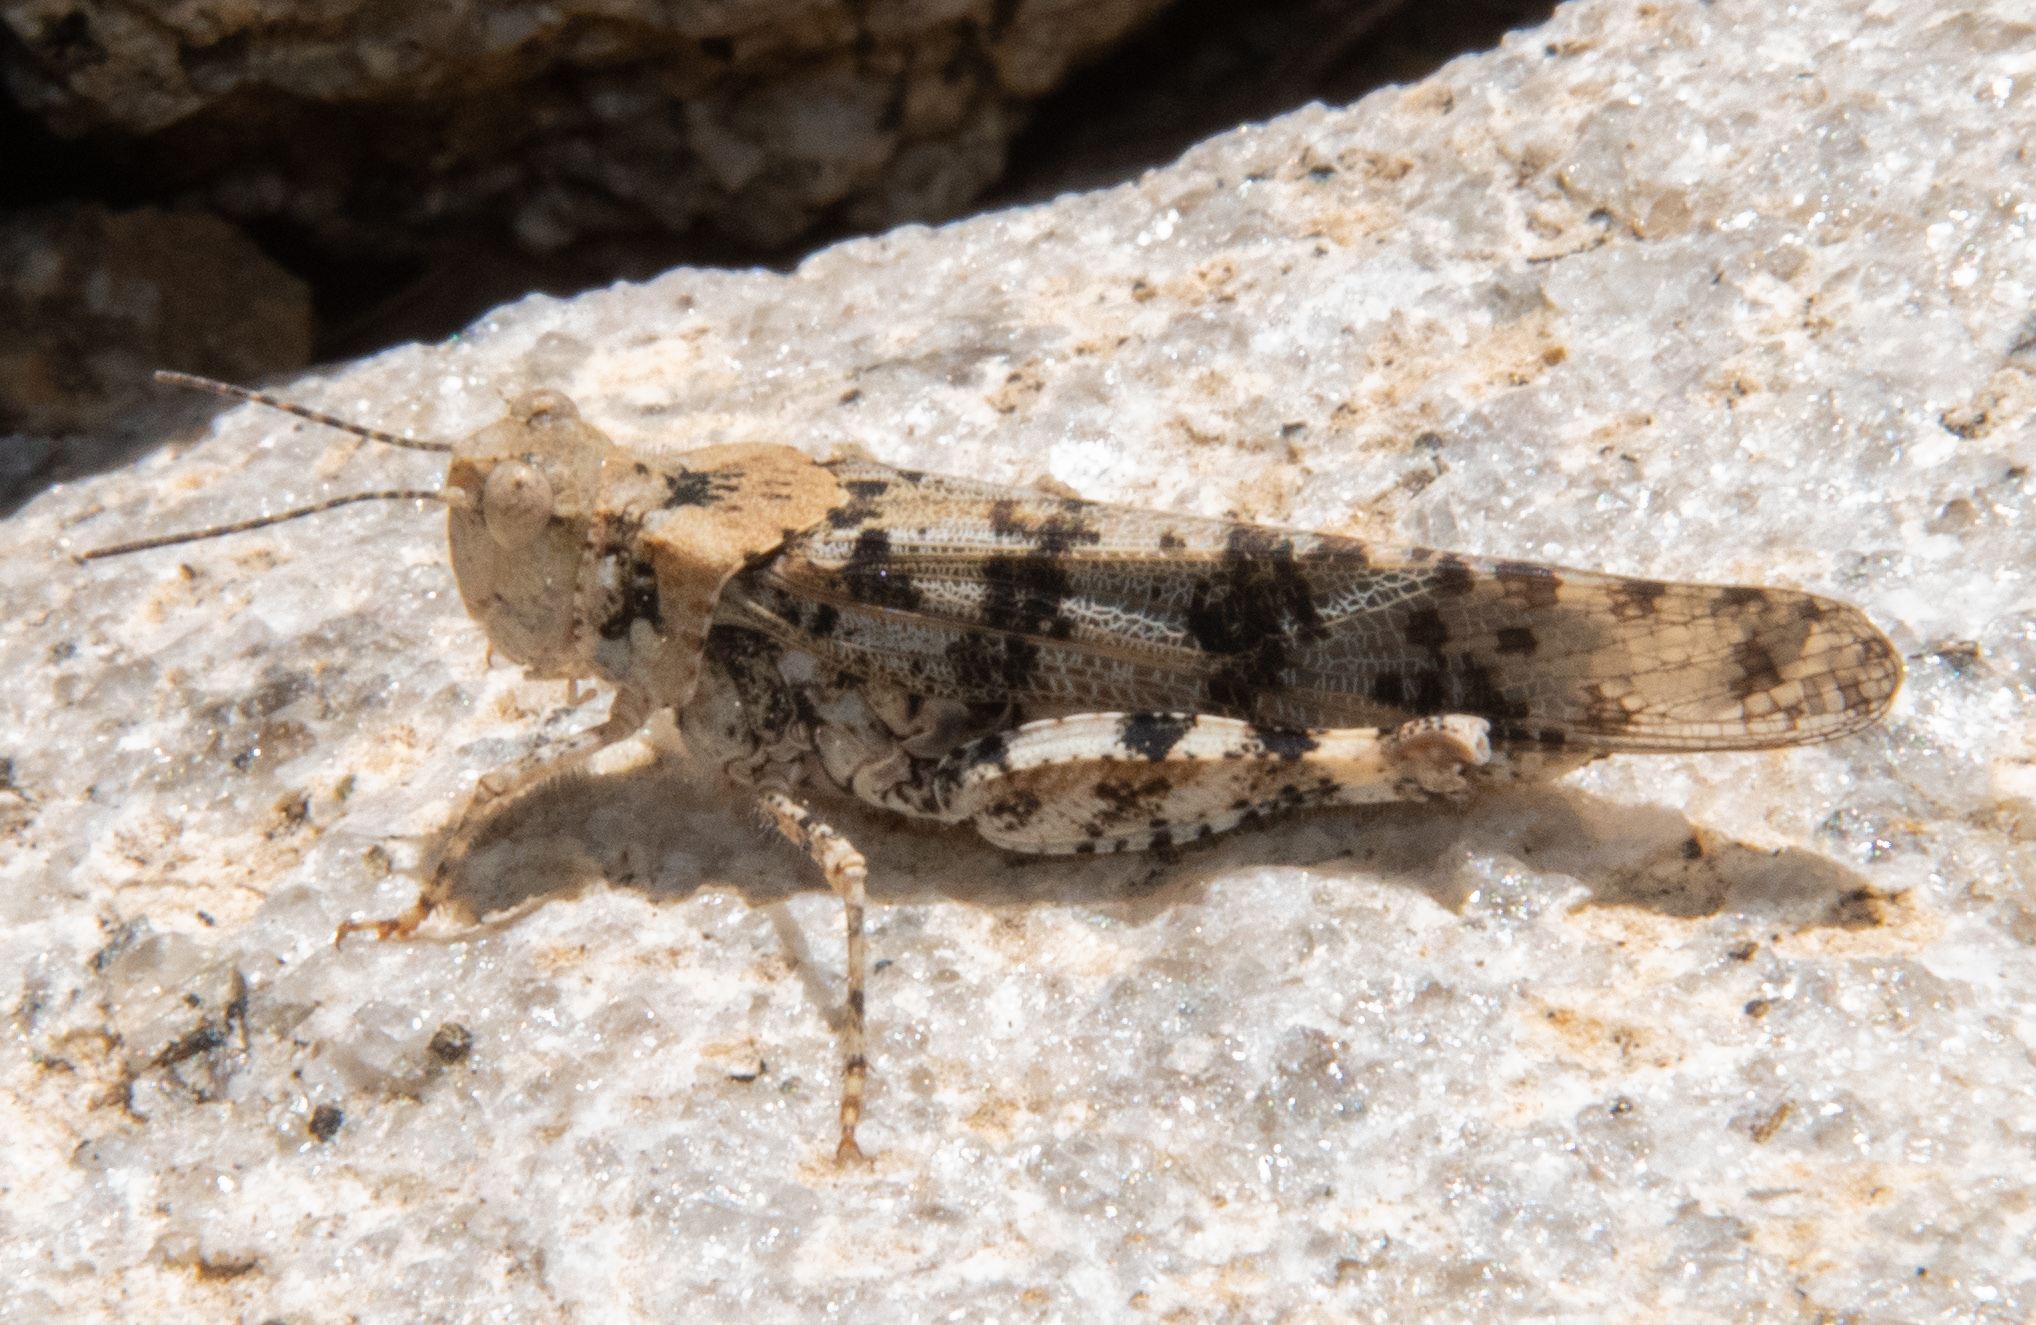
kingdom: Animalia
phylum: Arthropoda
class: Insecta
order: Orthoptera
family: Acrididae
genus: Spharagemon
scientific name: Spharagemon bunites
